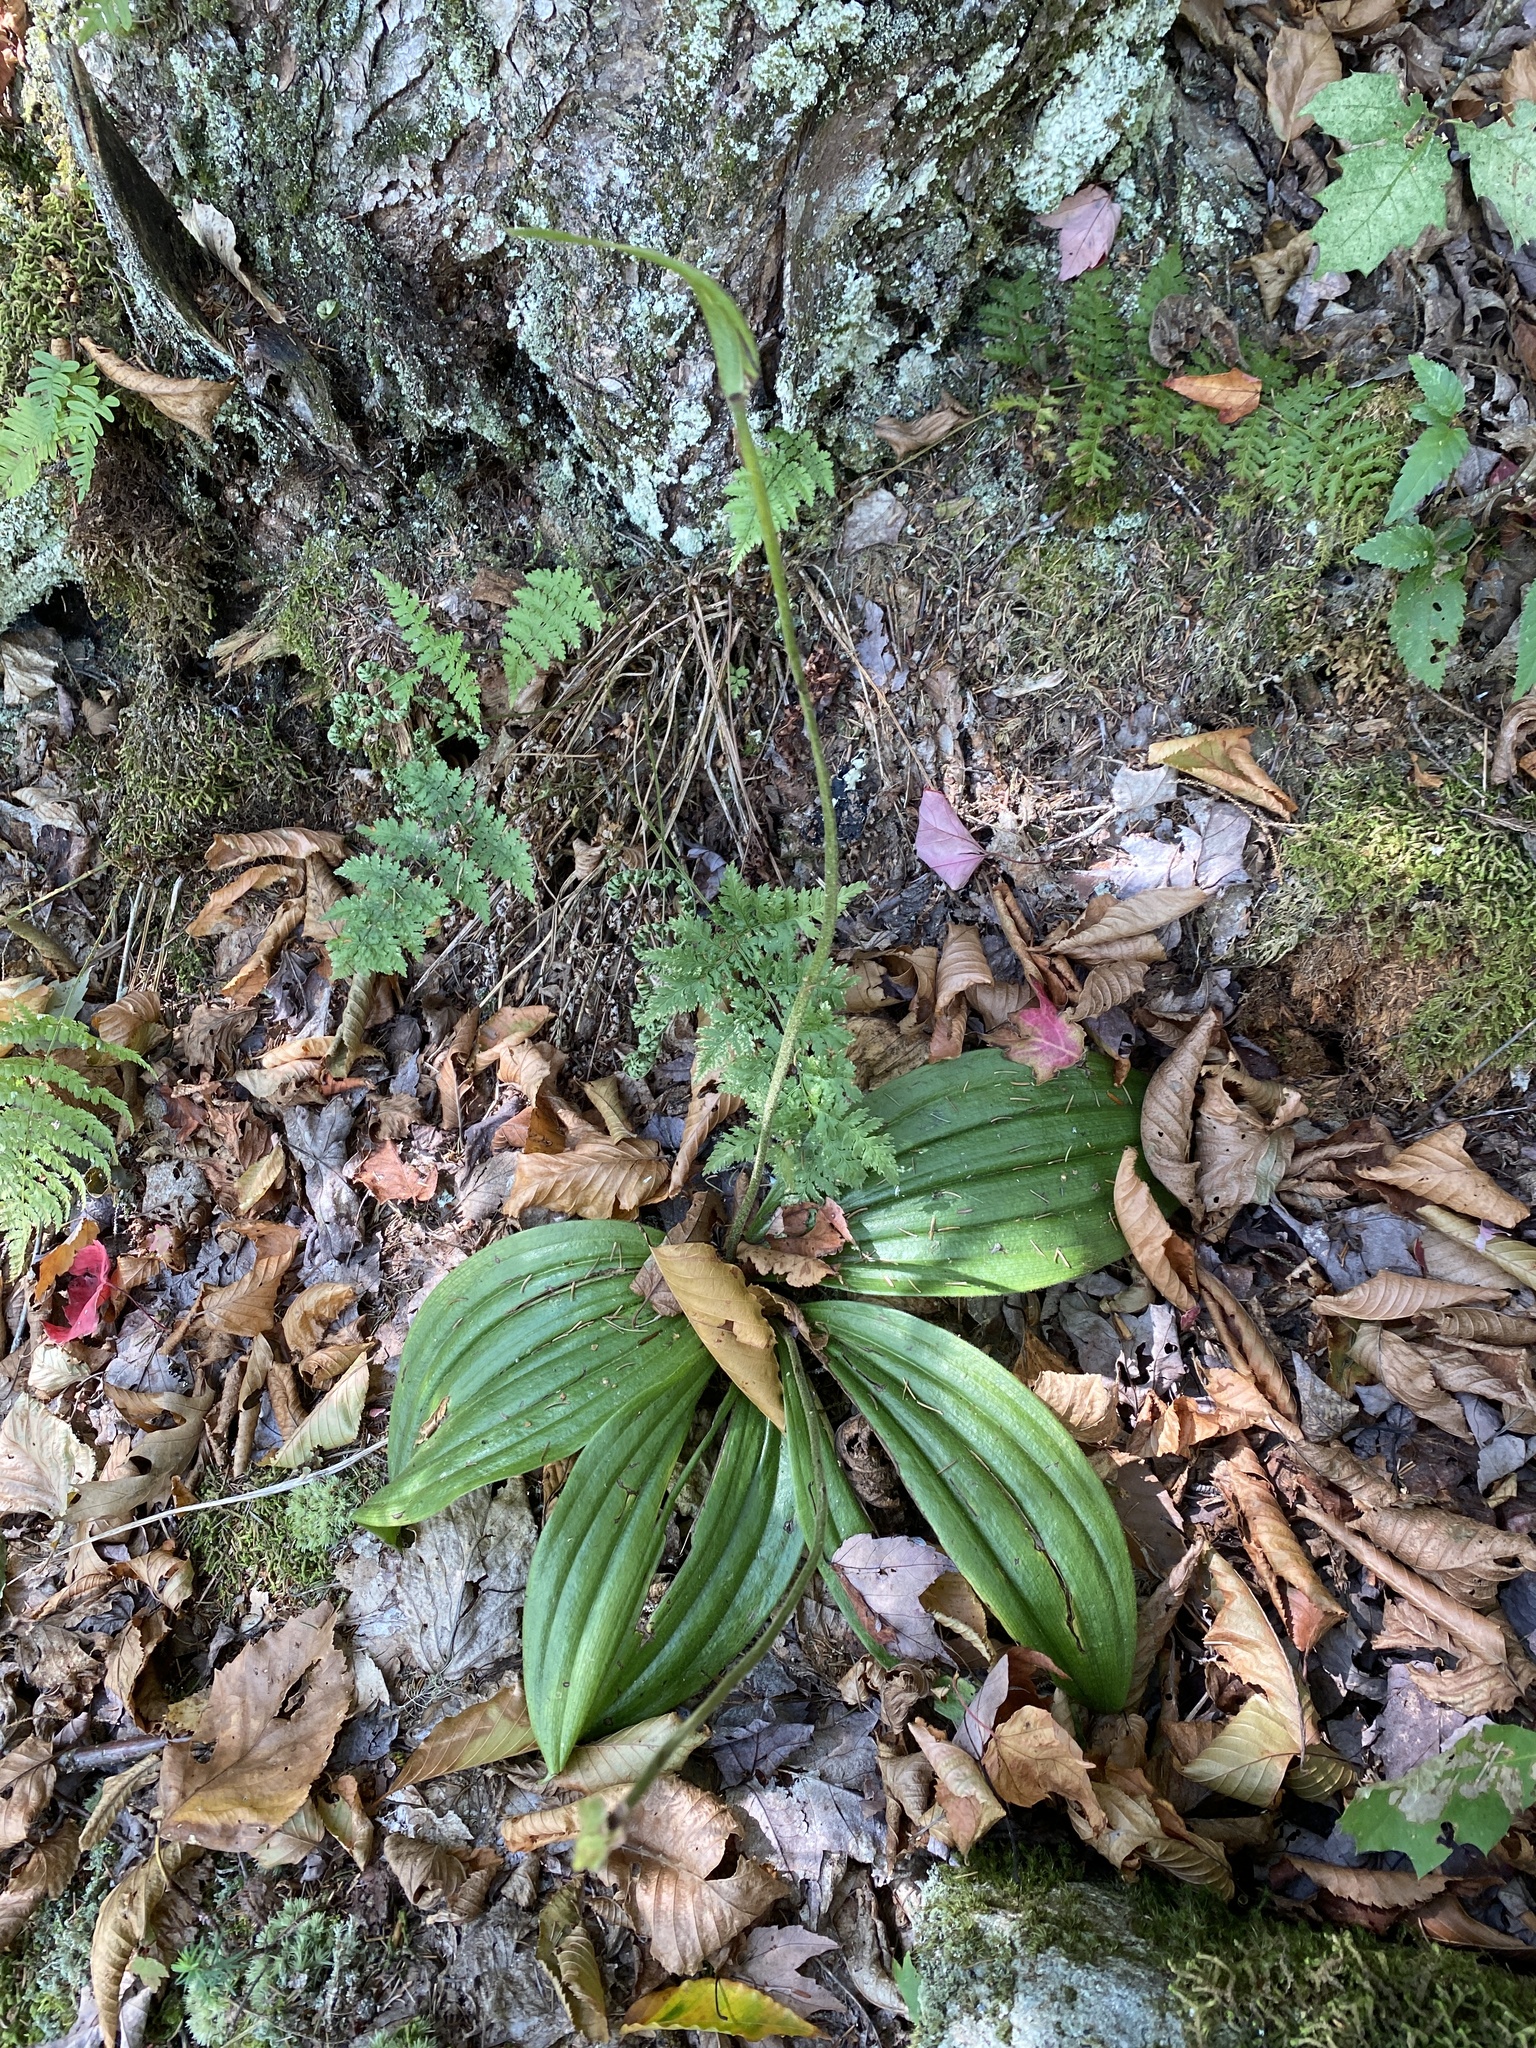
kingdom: Plantae
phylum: Tracheophyta
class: Liliopsida
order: Asparagales
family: Orchidaceae
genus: Cypripedium
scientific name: Cypripedium acaule
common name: Pink lady's-slipper
